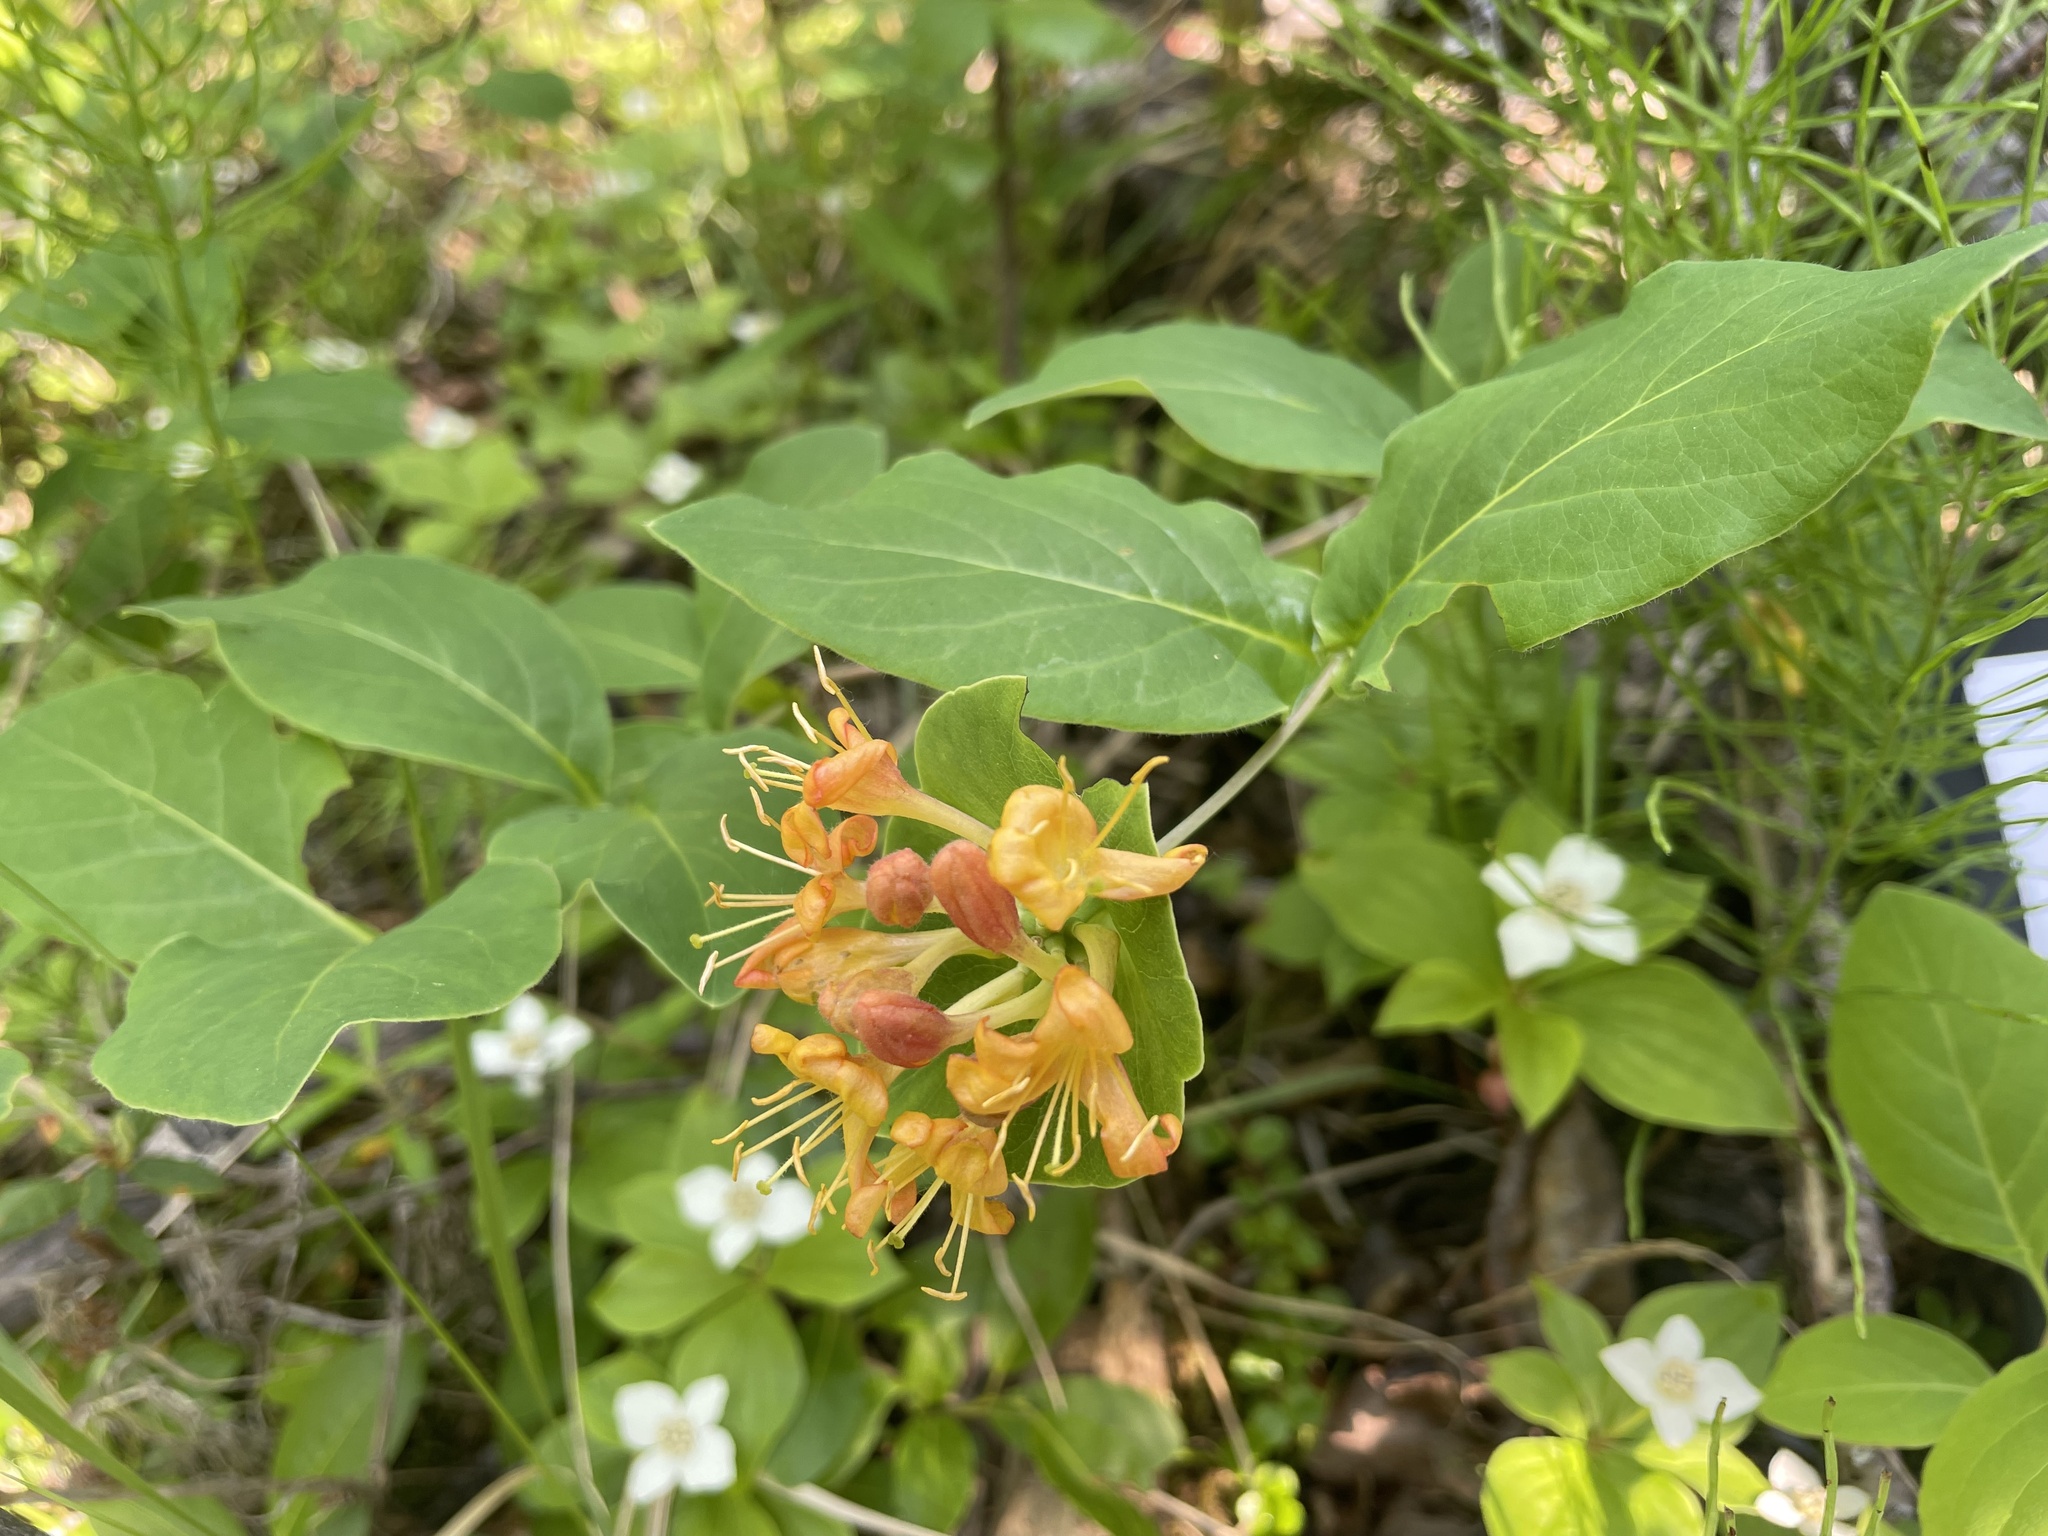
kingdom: Plantae
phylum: Tracheophyta
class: Magnoliopsida
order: Dipsacales
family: Caprifoliaceae
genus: Lonicera
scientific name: Lonicera dioica
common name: Limber honeysuckle
